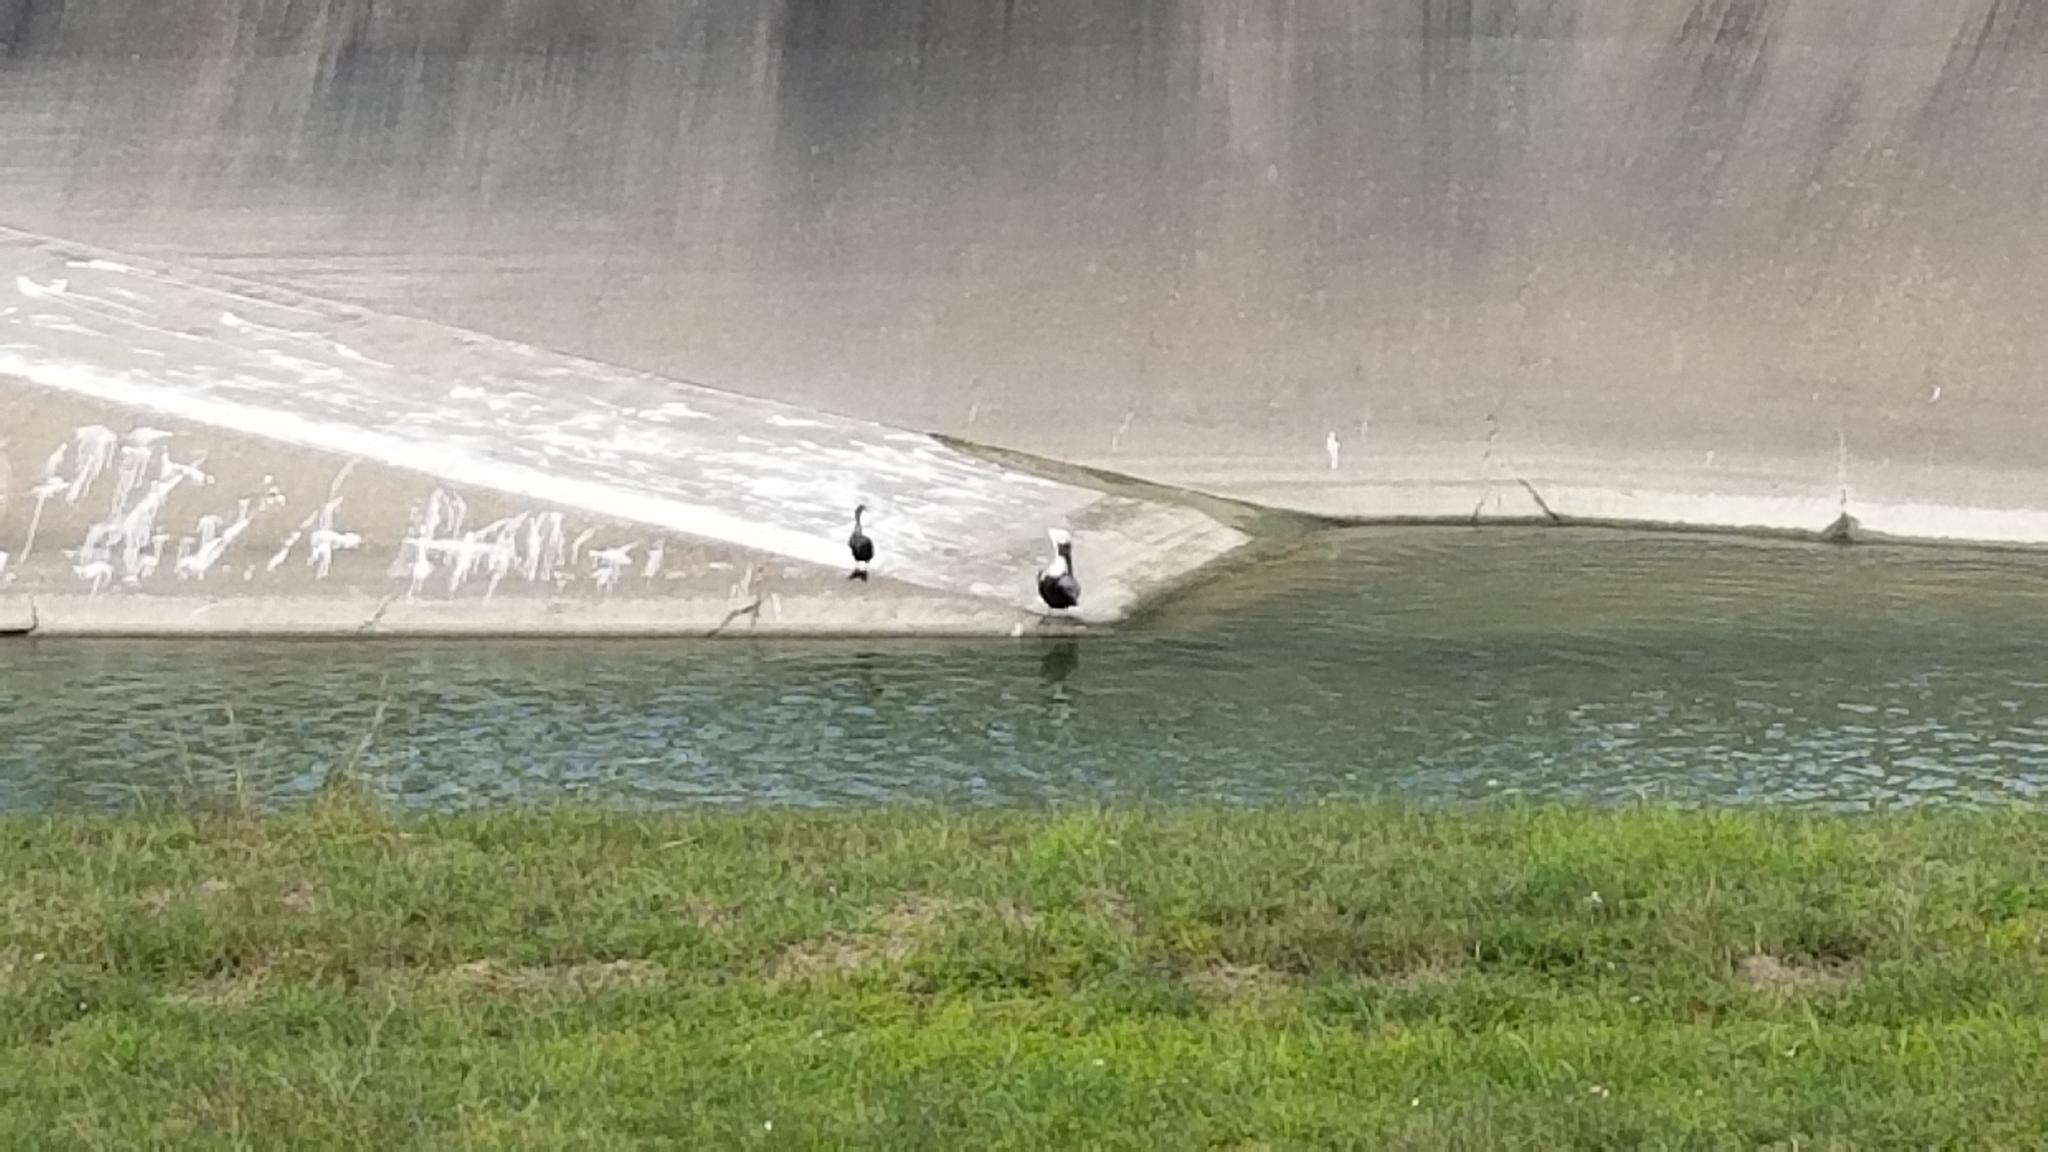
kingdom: Animalia
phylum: Chordata
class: Aves
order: Pelecaniformes
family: Pelecanidae
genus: Pelecanus
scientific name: Pelecanus occidentalis
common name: Brown pelican
